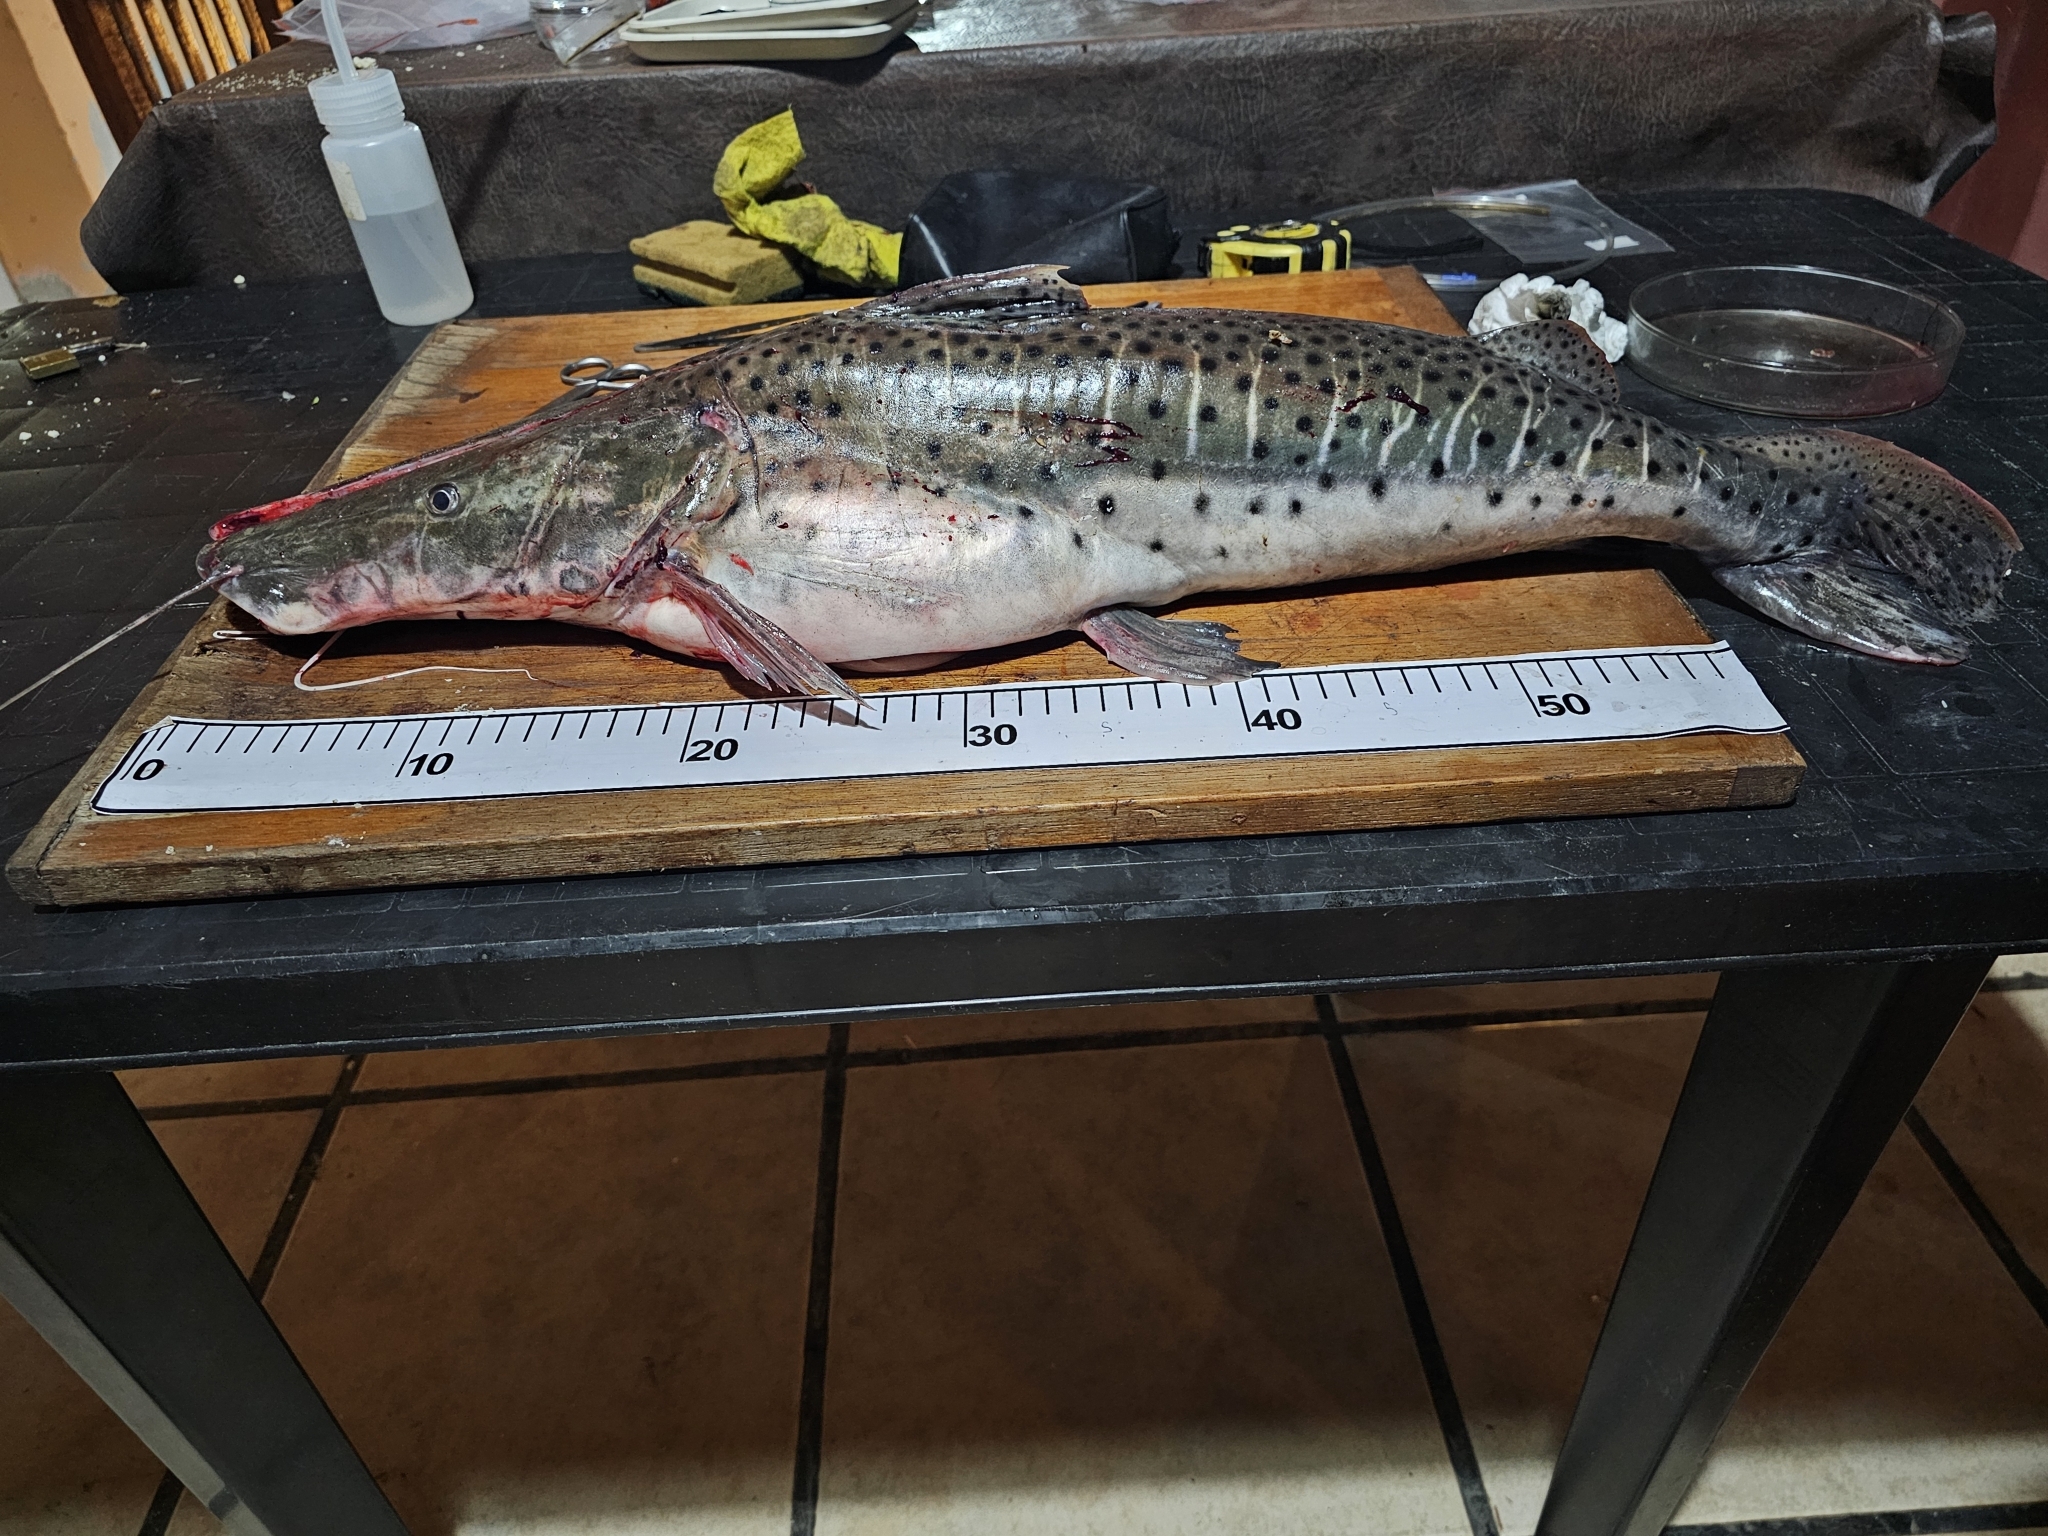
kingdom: Animalia
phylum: Chordata
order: Siluriformes
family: Pimelodidae
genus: Pseudoplatystoma
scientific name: Pseudoplatystoma corruscans
